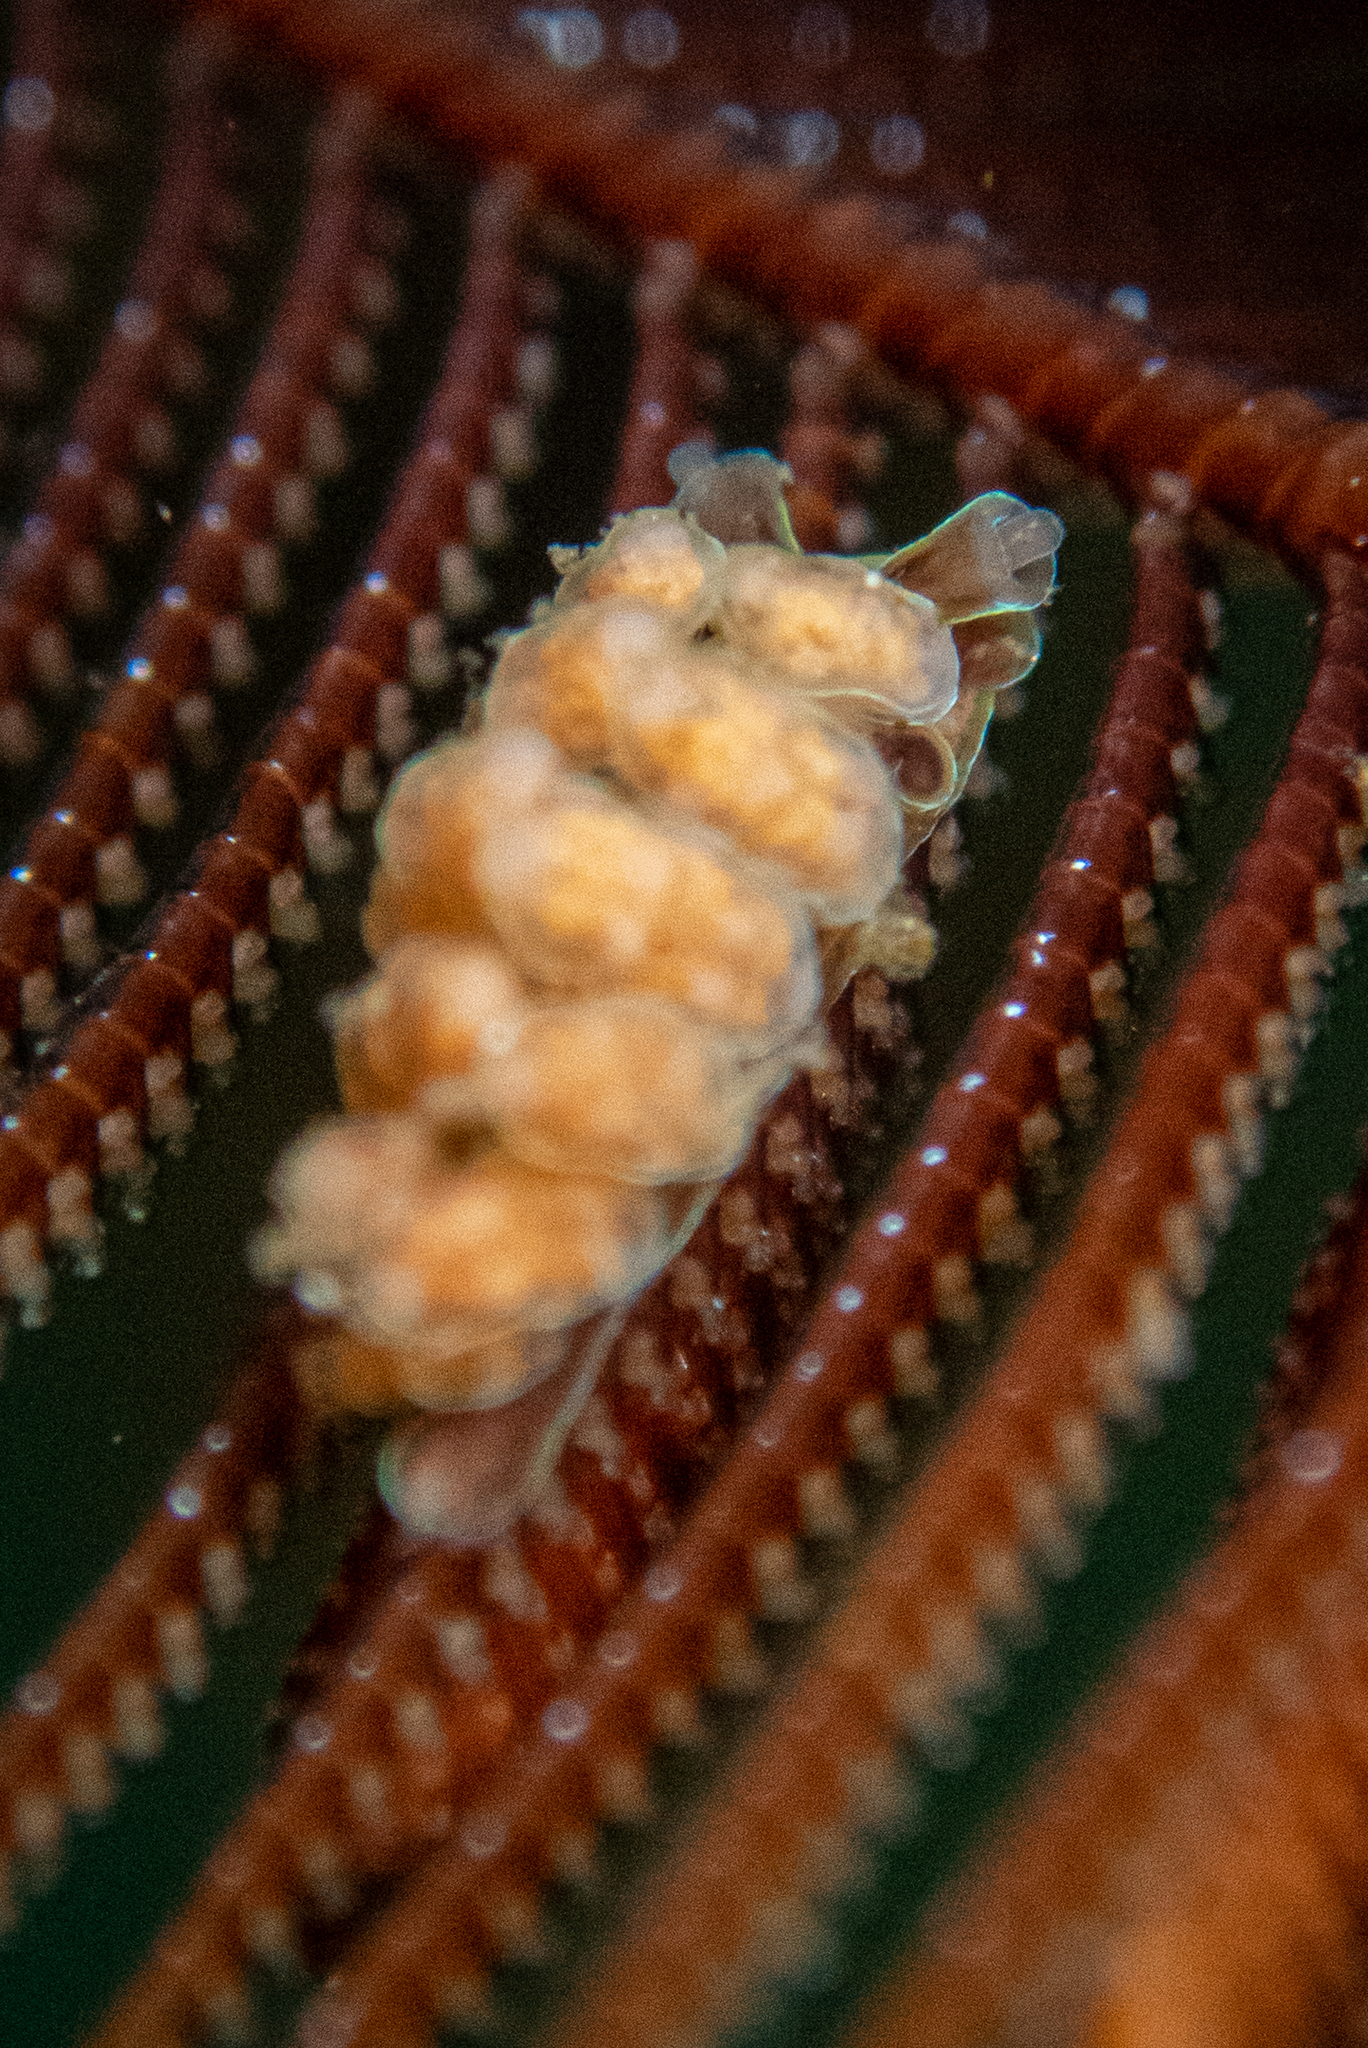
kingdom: Animalia
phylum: Mollusca
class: Gastropoda
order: Nudibranchia
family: Dotidae
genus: Doto
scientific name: Doto columbiana
